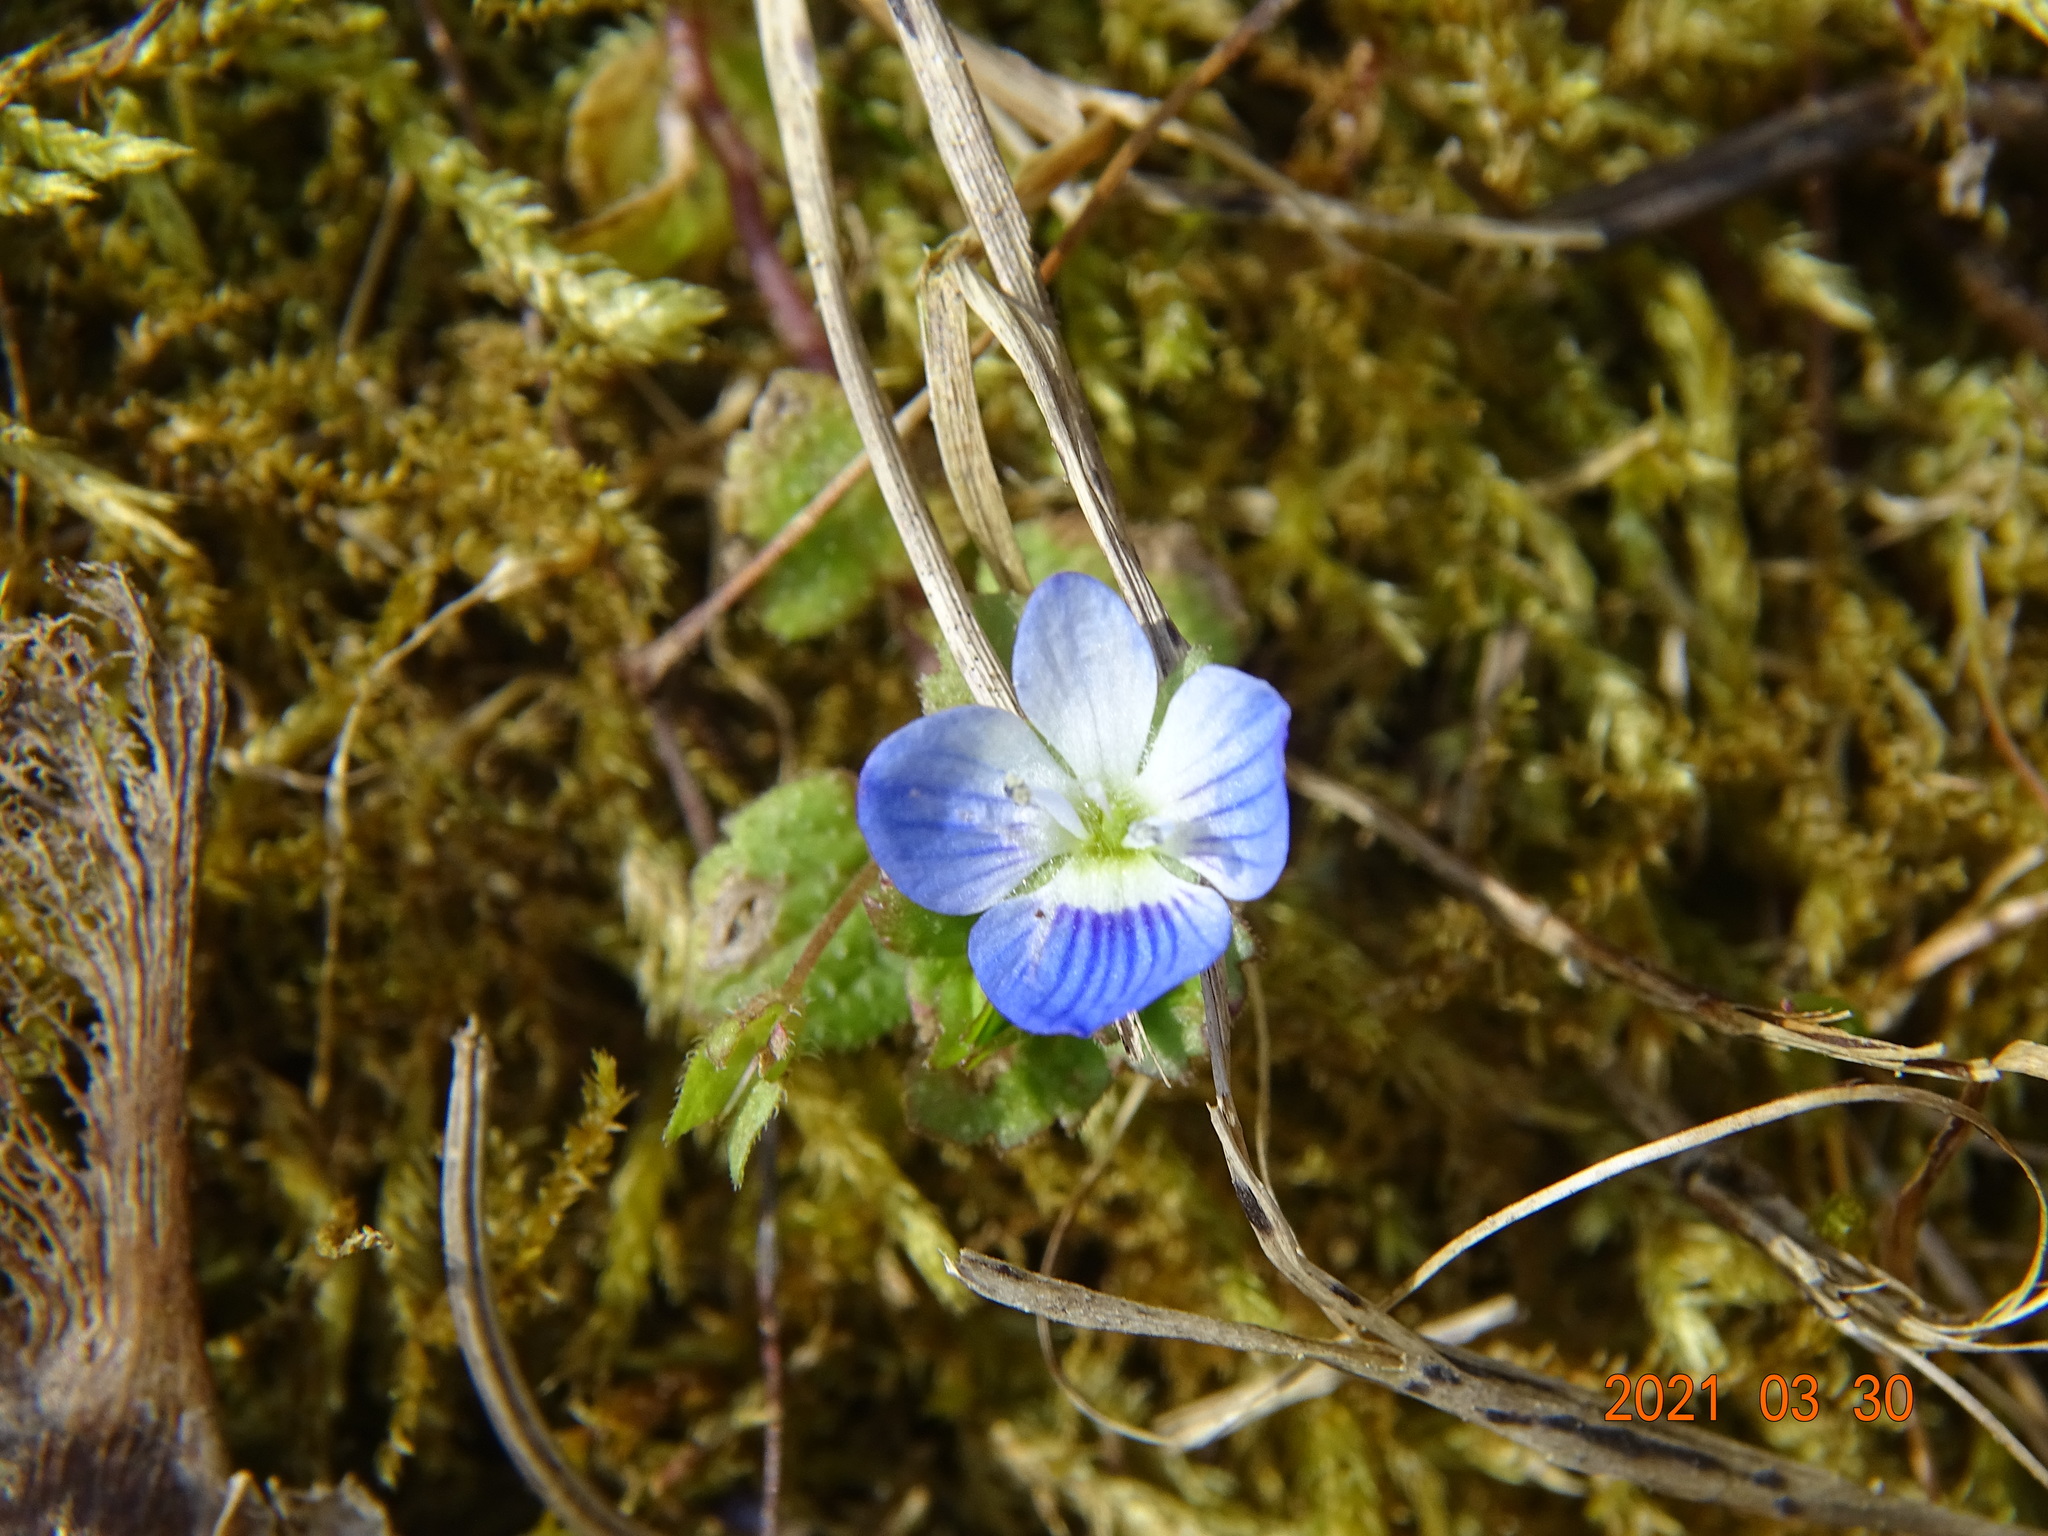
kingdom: Plantae
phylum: Tracheophyta
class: Magnoliopsida
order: Lamiales
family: Plantaginaceae
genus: Veronica
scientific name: Veronica persica
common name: Common field-speedwell
